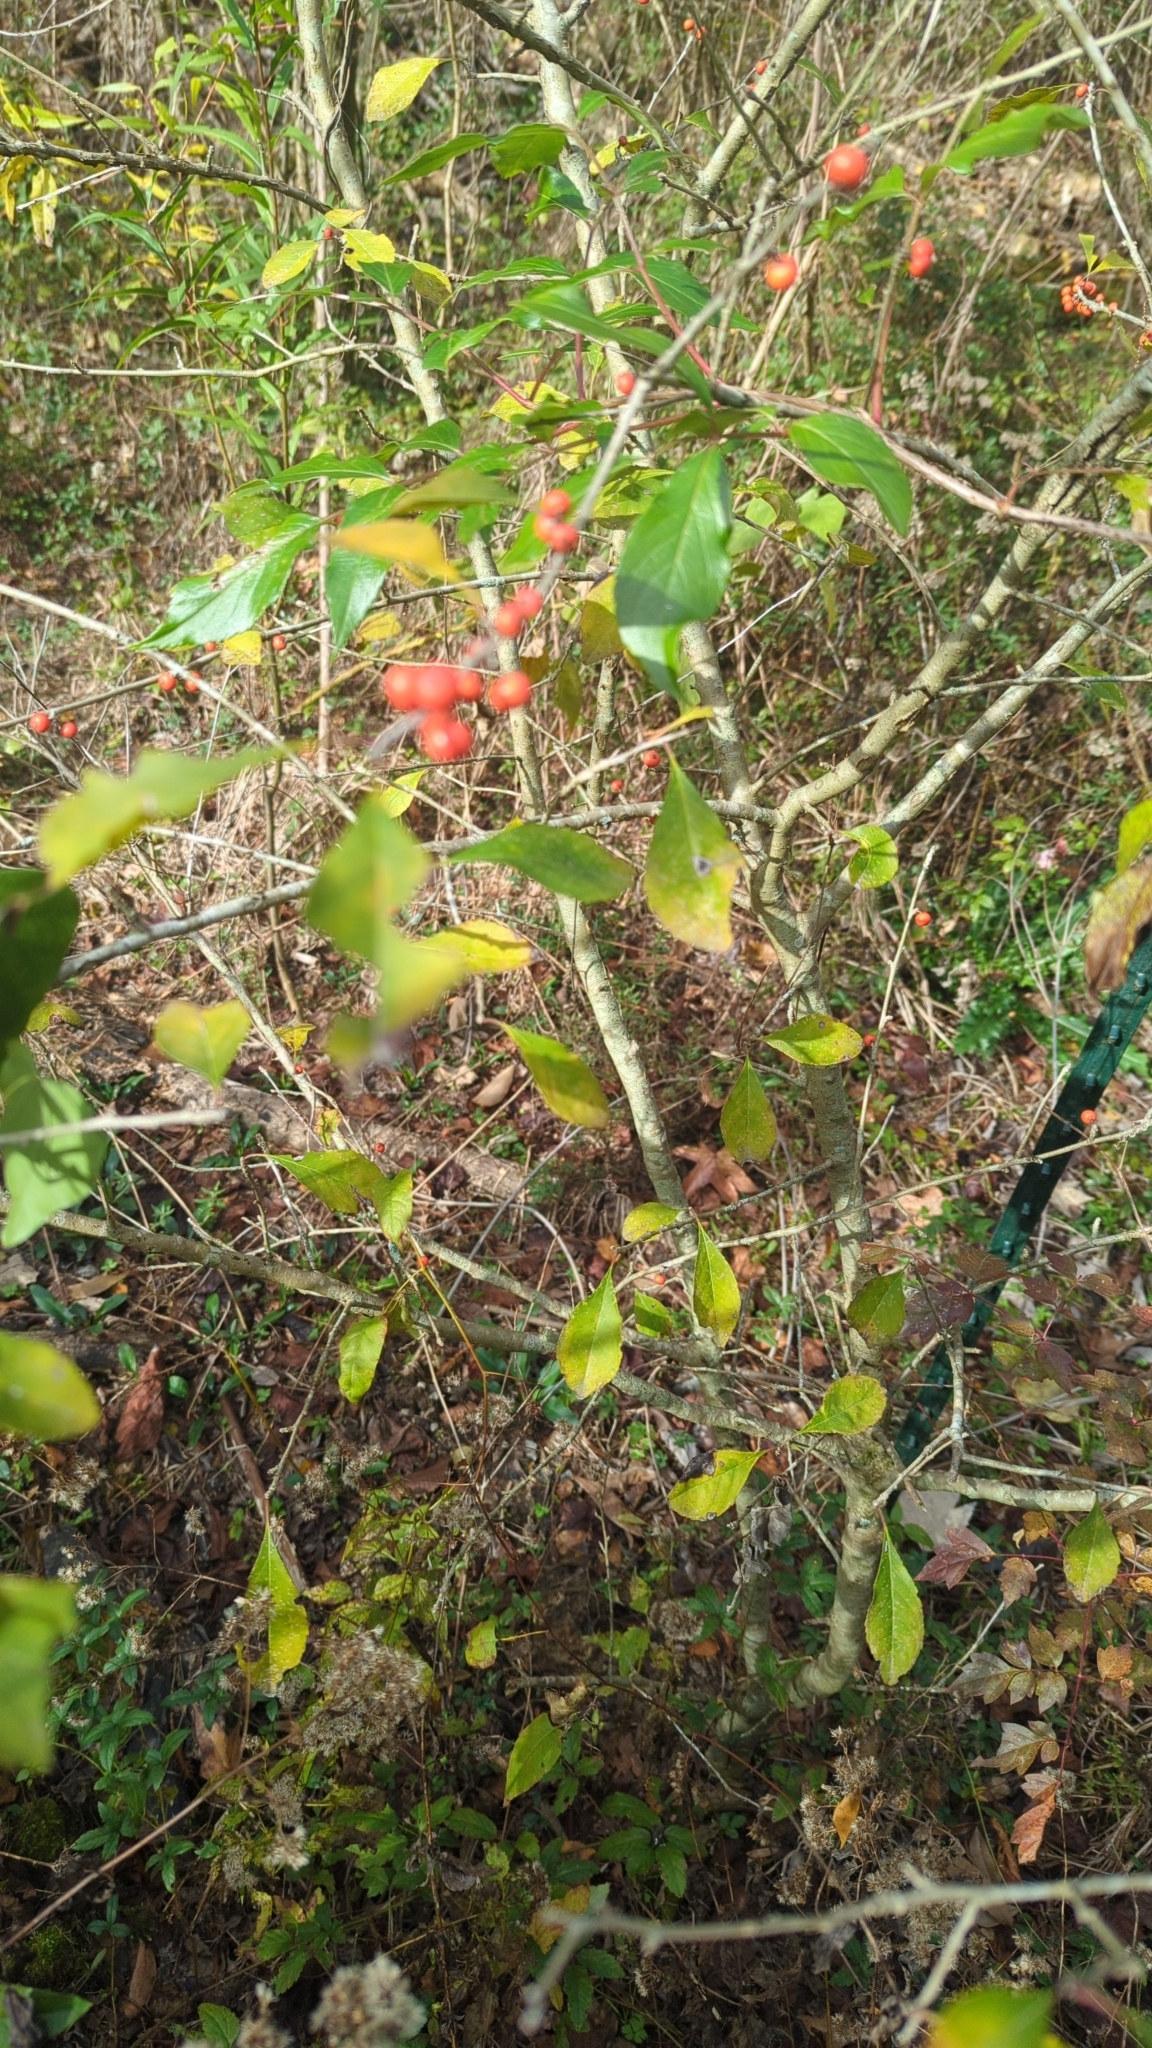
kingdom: Plantae
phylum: Tracheophyta
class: Magnoliopsida
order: Aquifoliales
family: Aquifoliaceae
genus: Ilex
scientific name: Ilex decidua
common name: Possum-haw
